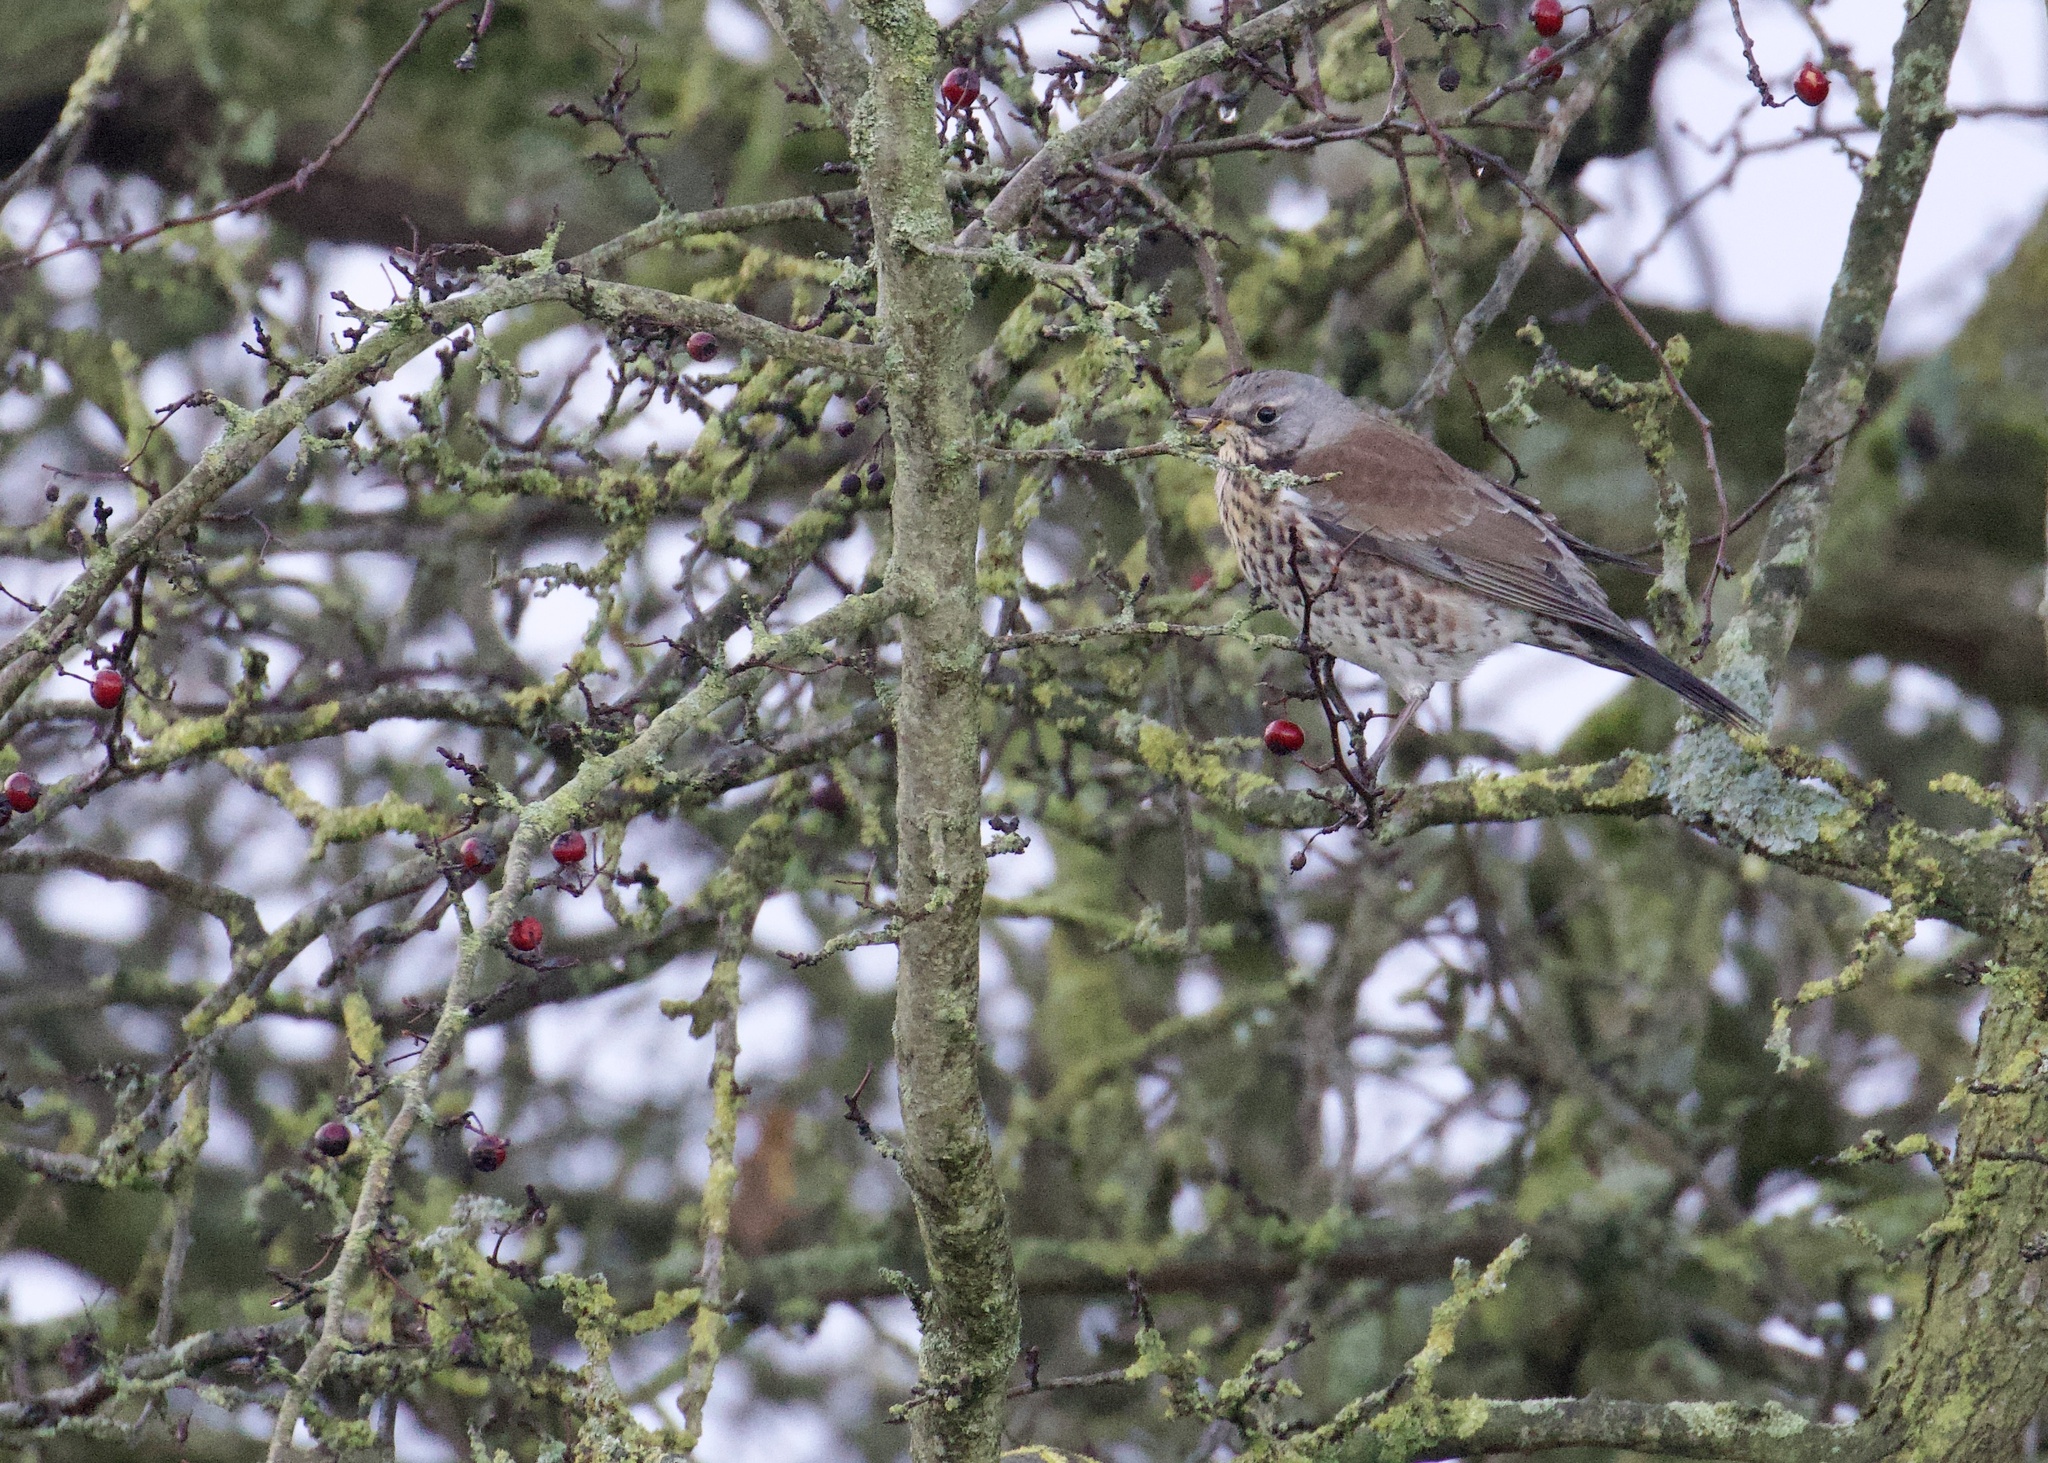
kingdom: Animalia
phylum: Chordata
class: Aves
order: Passeriformes
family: Turdidae
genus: Turdus
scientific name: Turdus pilaris
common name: Fieldfare
